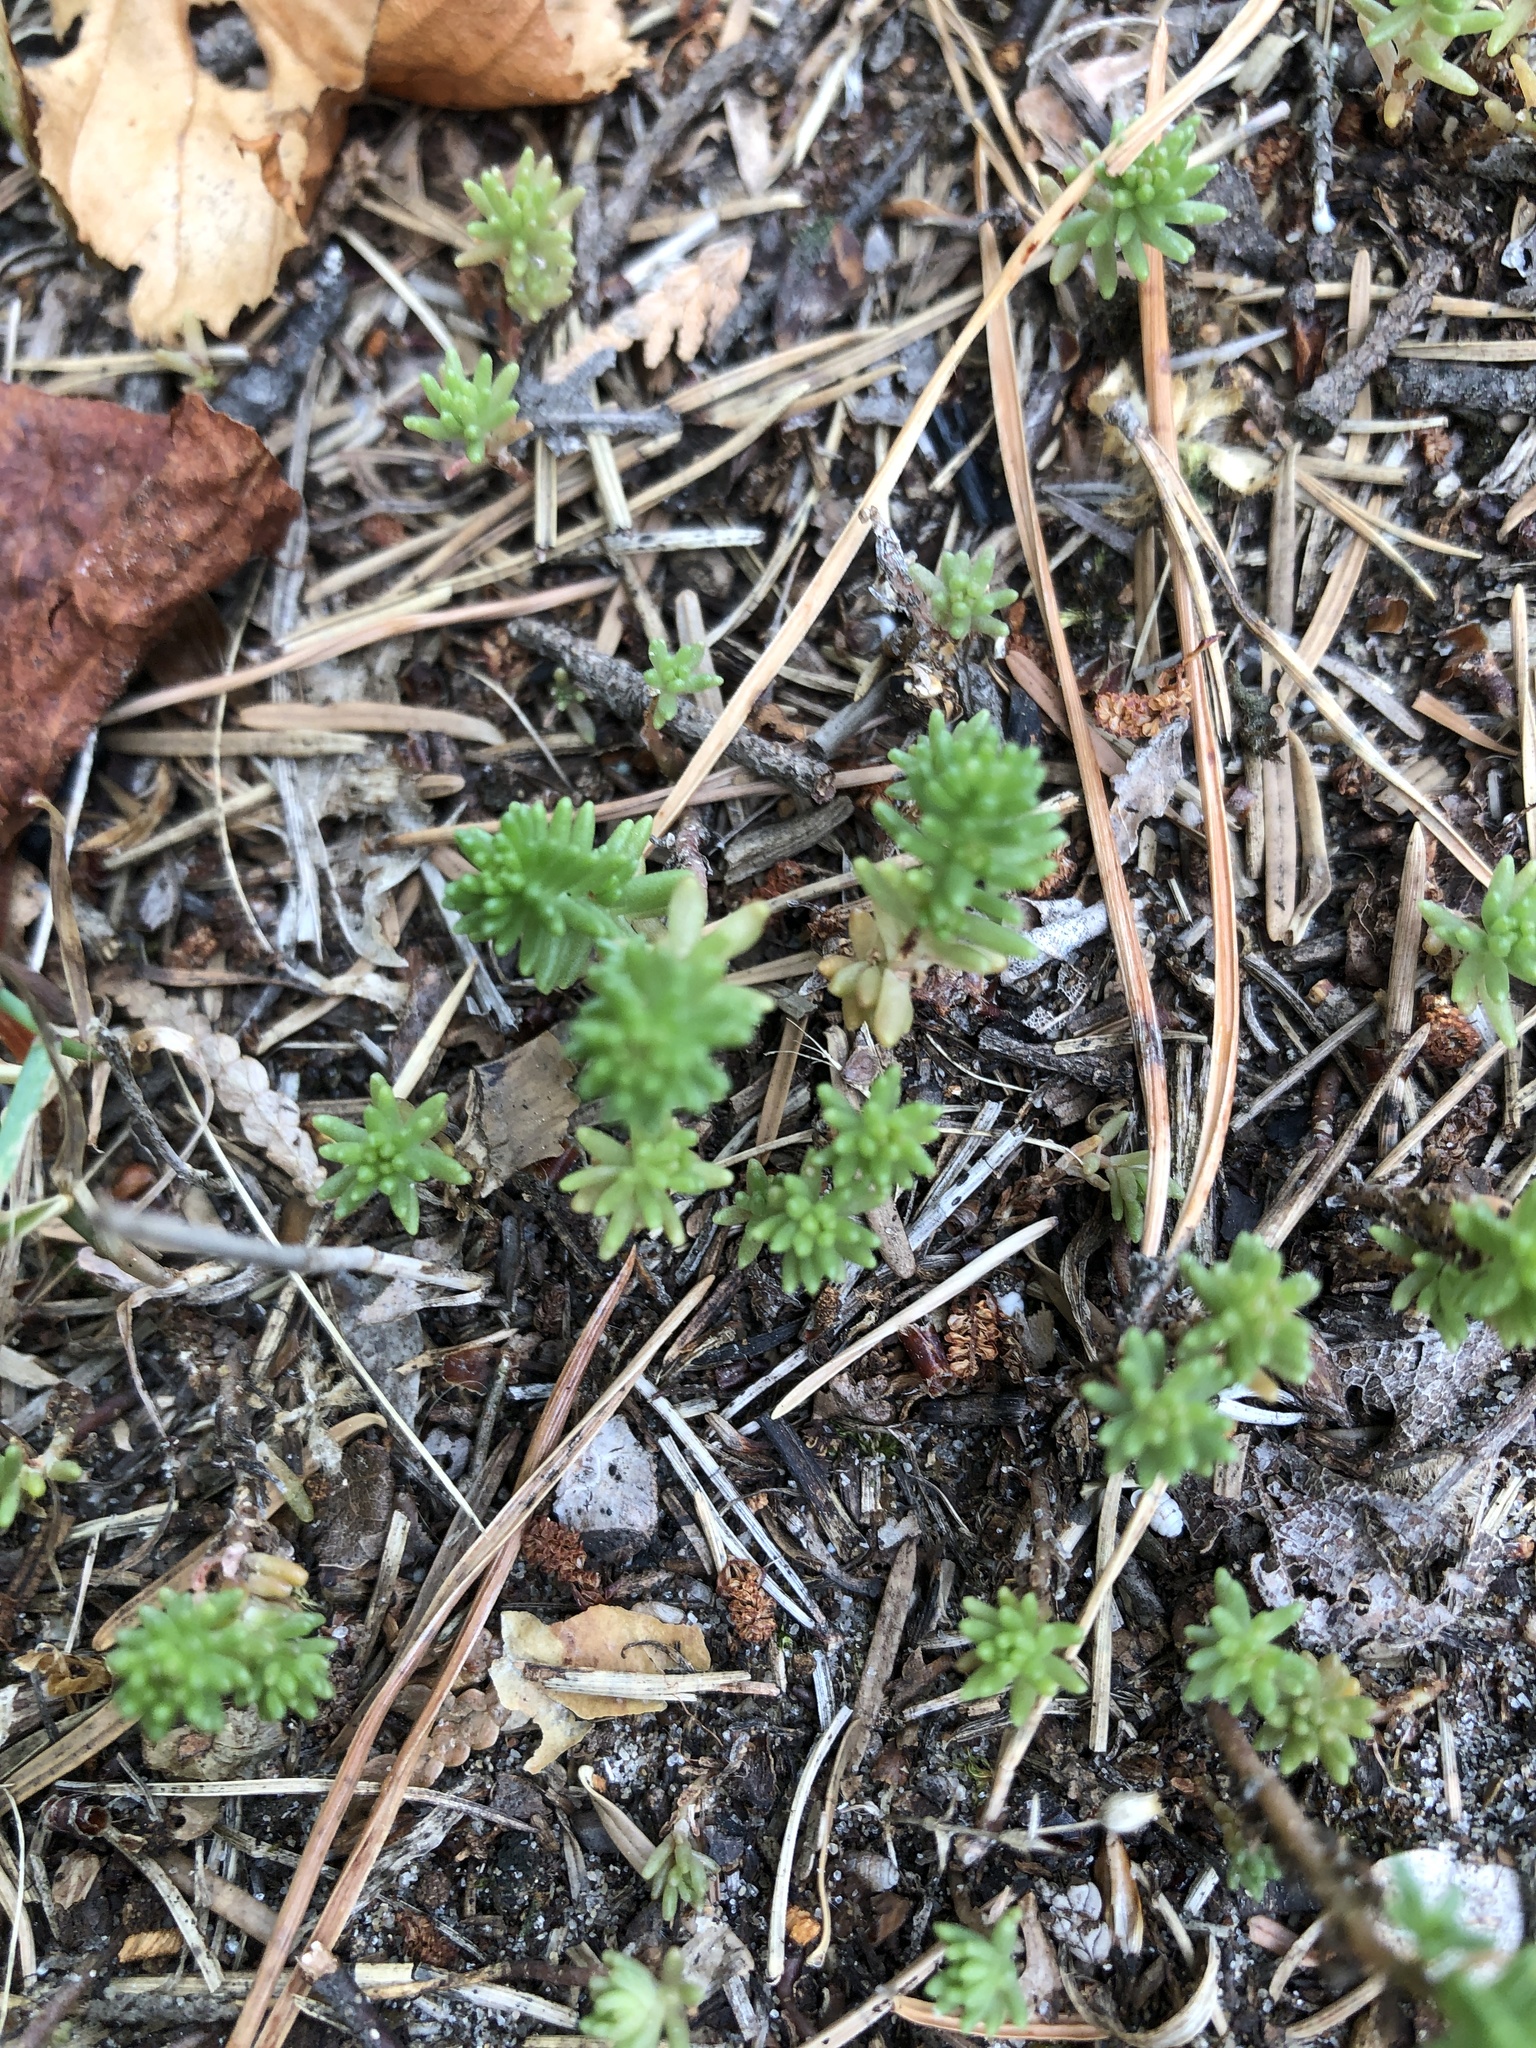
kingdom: Plantae
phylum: Tracheophyta
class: Magnoliopsida
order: Saxifragales
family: Crassulaceae
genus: Sedum
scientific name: Sedum sexangulare
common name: Tasteless stonecrop
